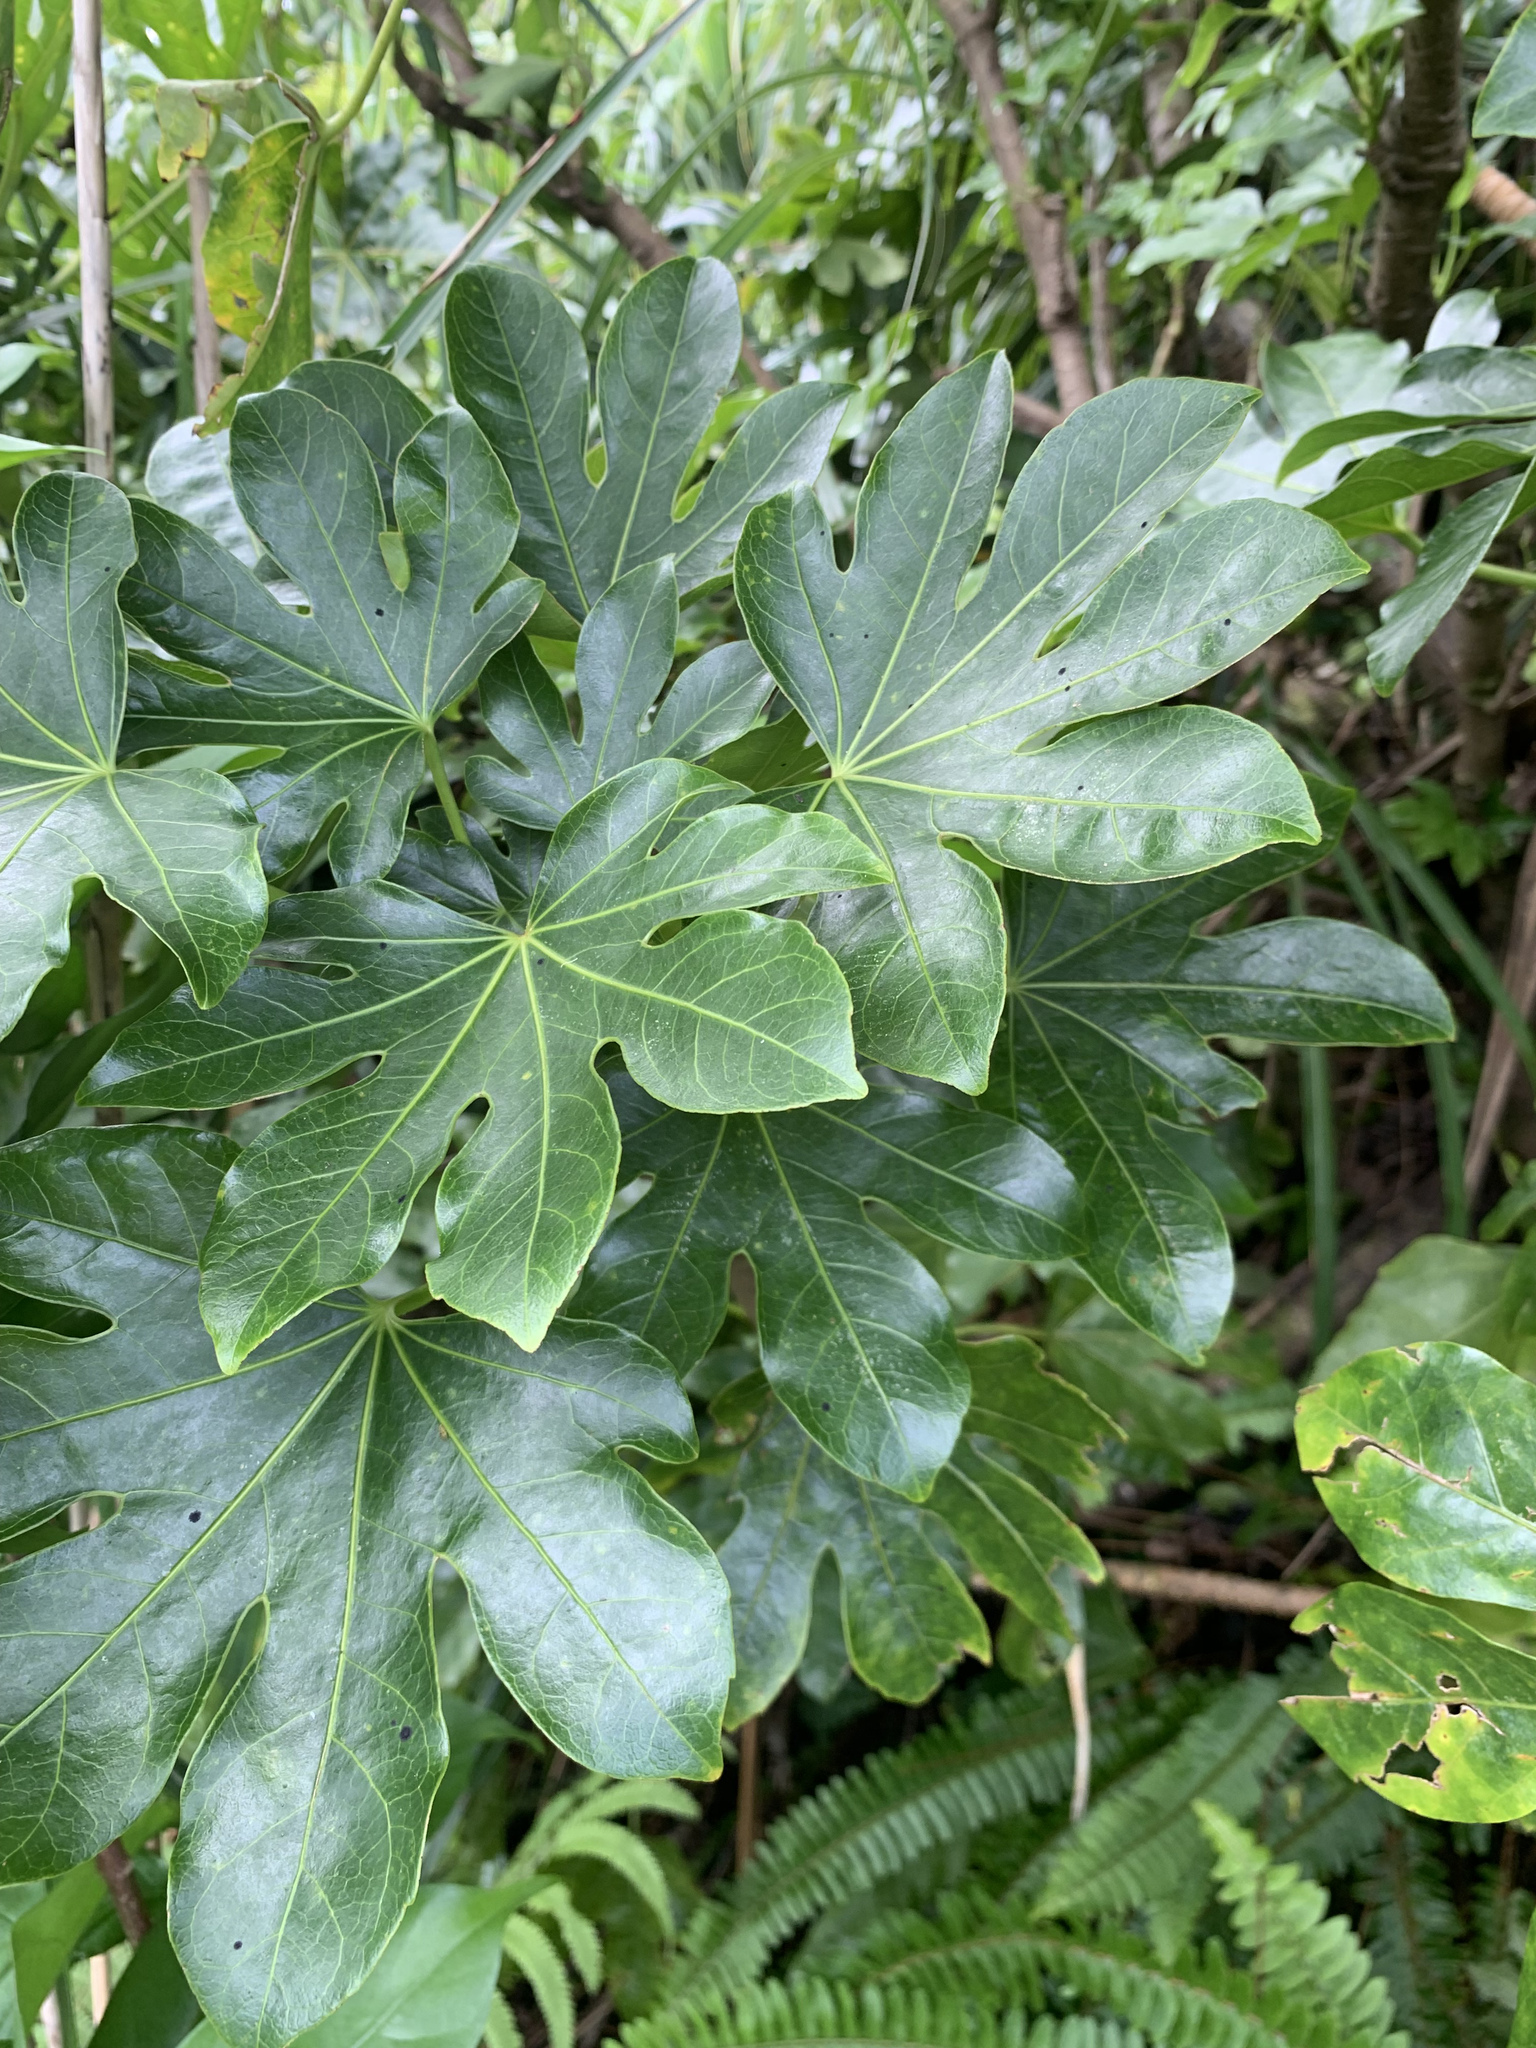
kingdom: Plantae
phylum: Tracheophyta
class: Magnoliopsida
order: Apiales
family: Araliaceae
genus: Fatsia
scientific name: Fatsia oligocarpella
